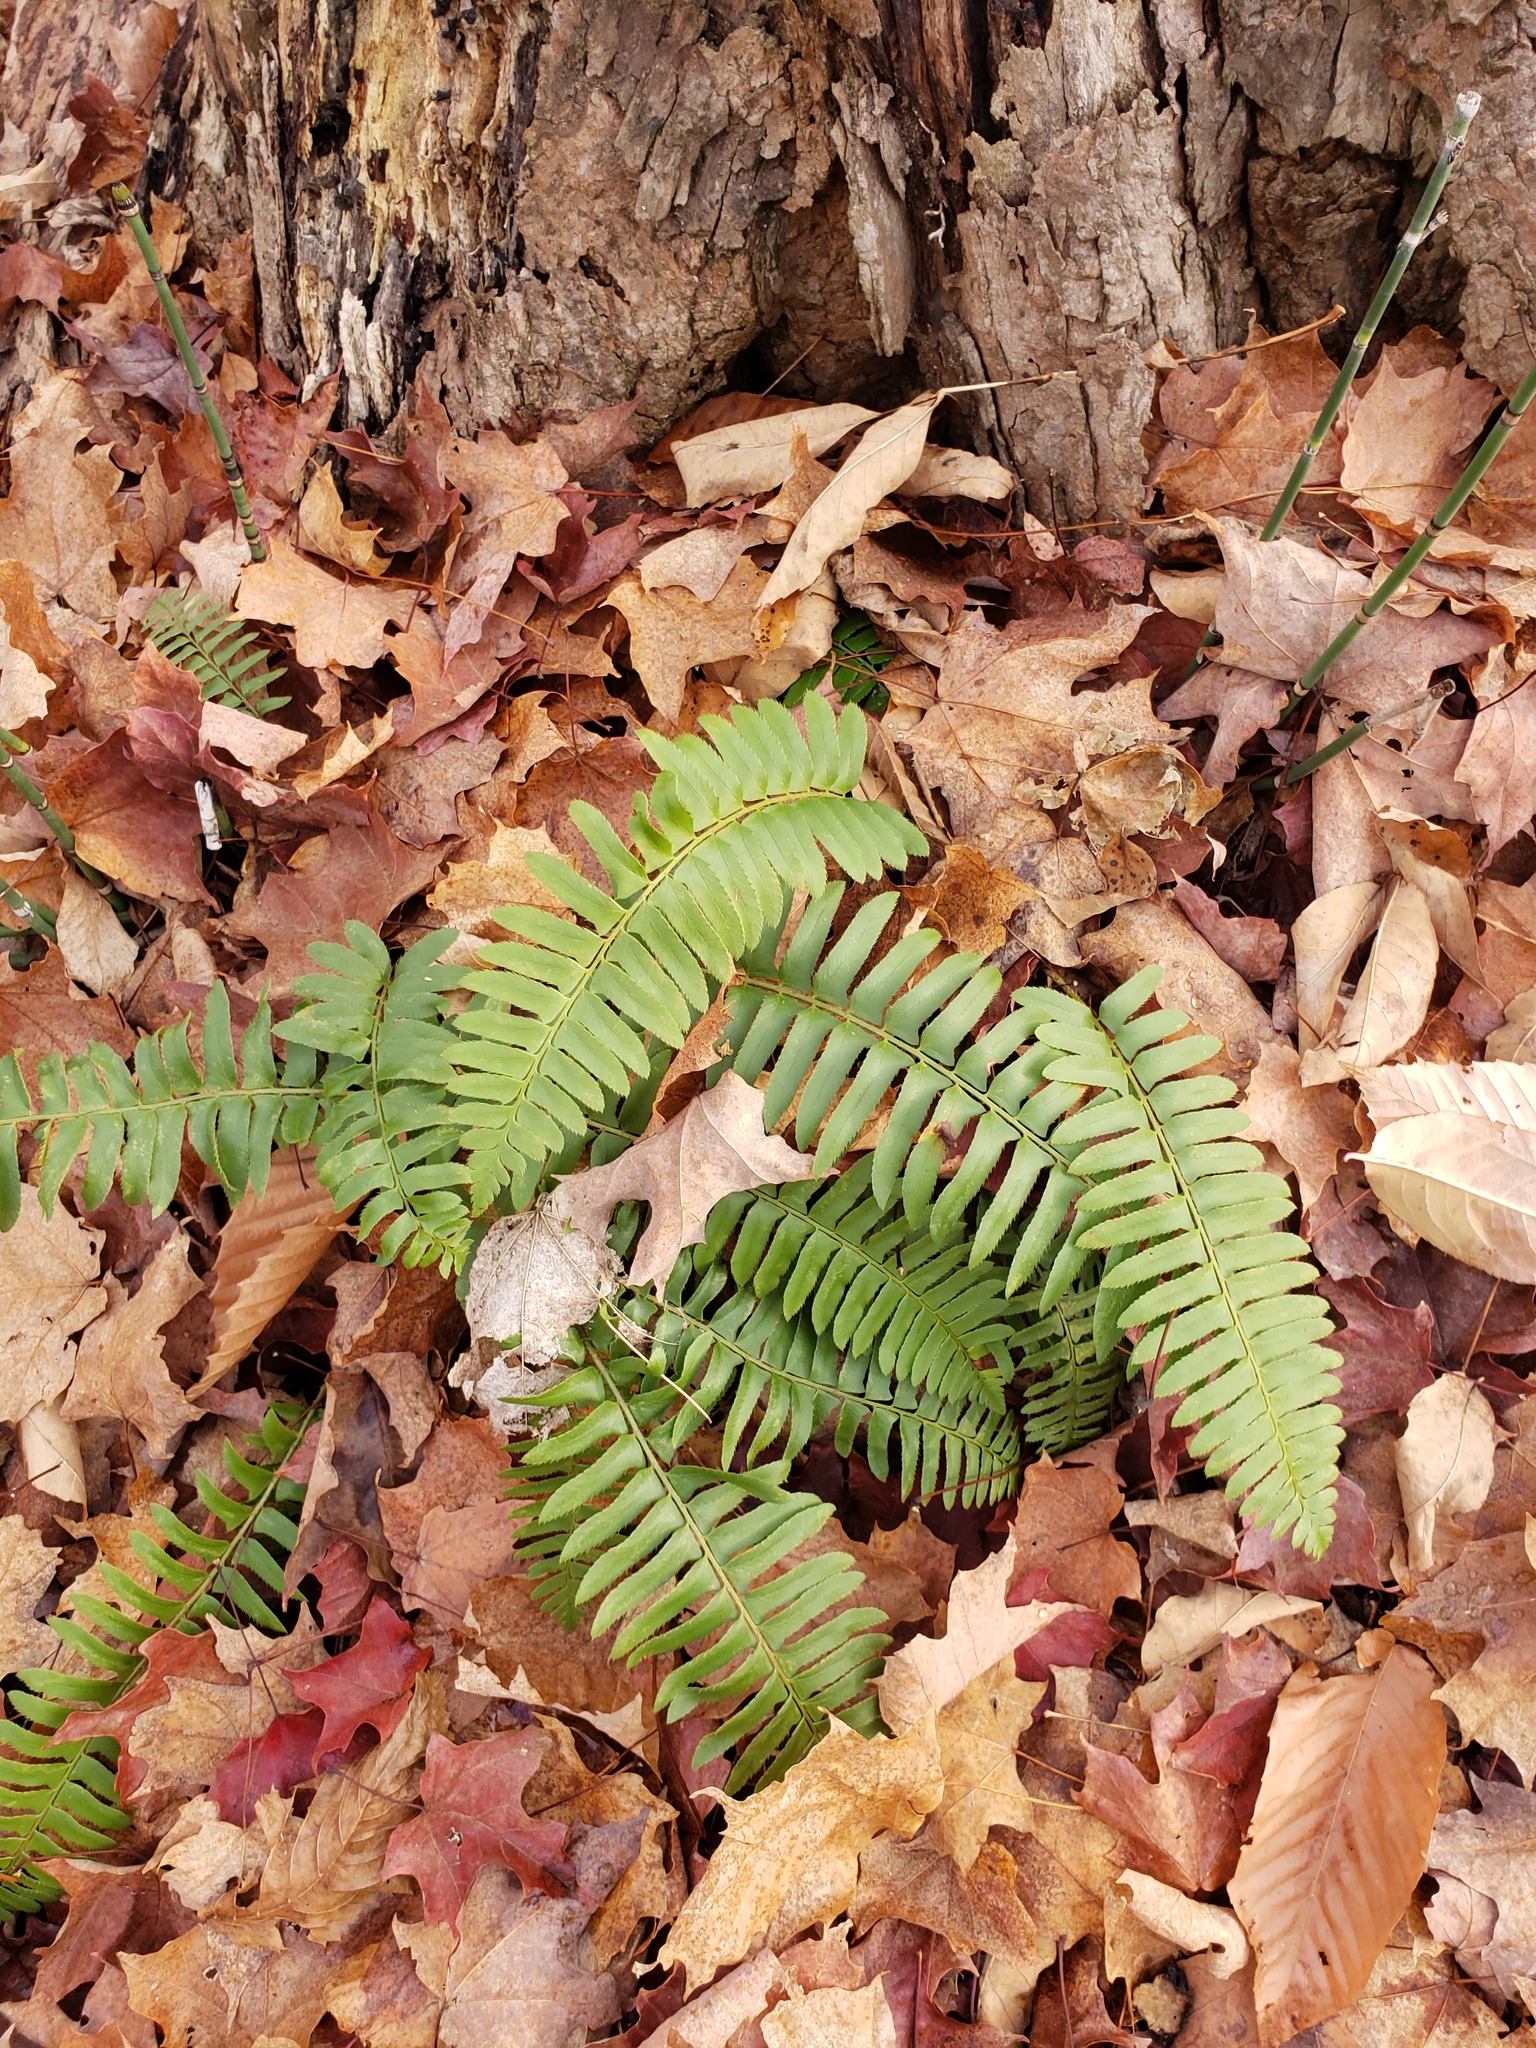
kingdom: Plantae
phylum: Tracheophyta
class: Polypodiopsida
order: Polypodiales
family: Dryopteridaceae
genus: Polystichum
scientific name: Polystichum acrostichoides
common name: Christmas fern
